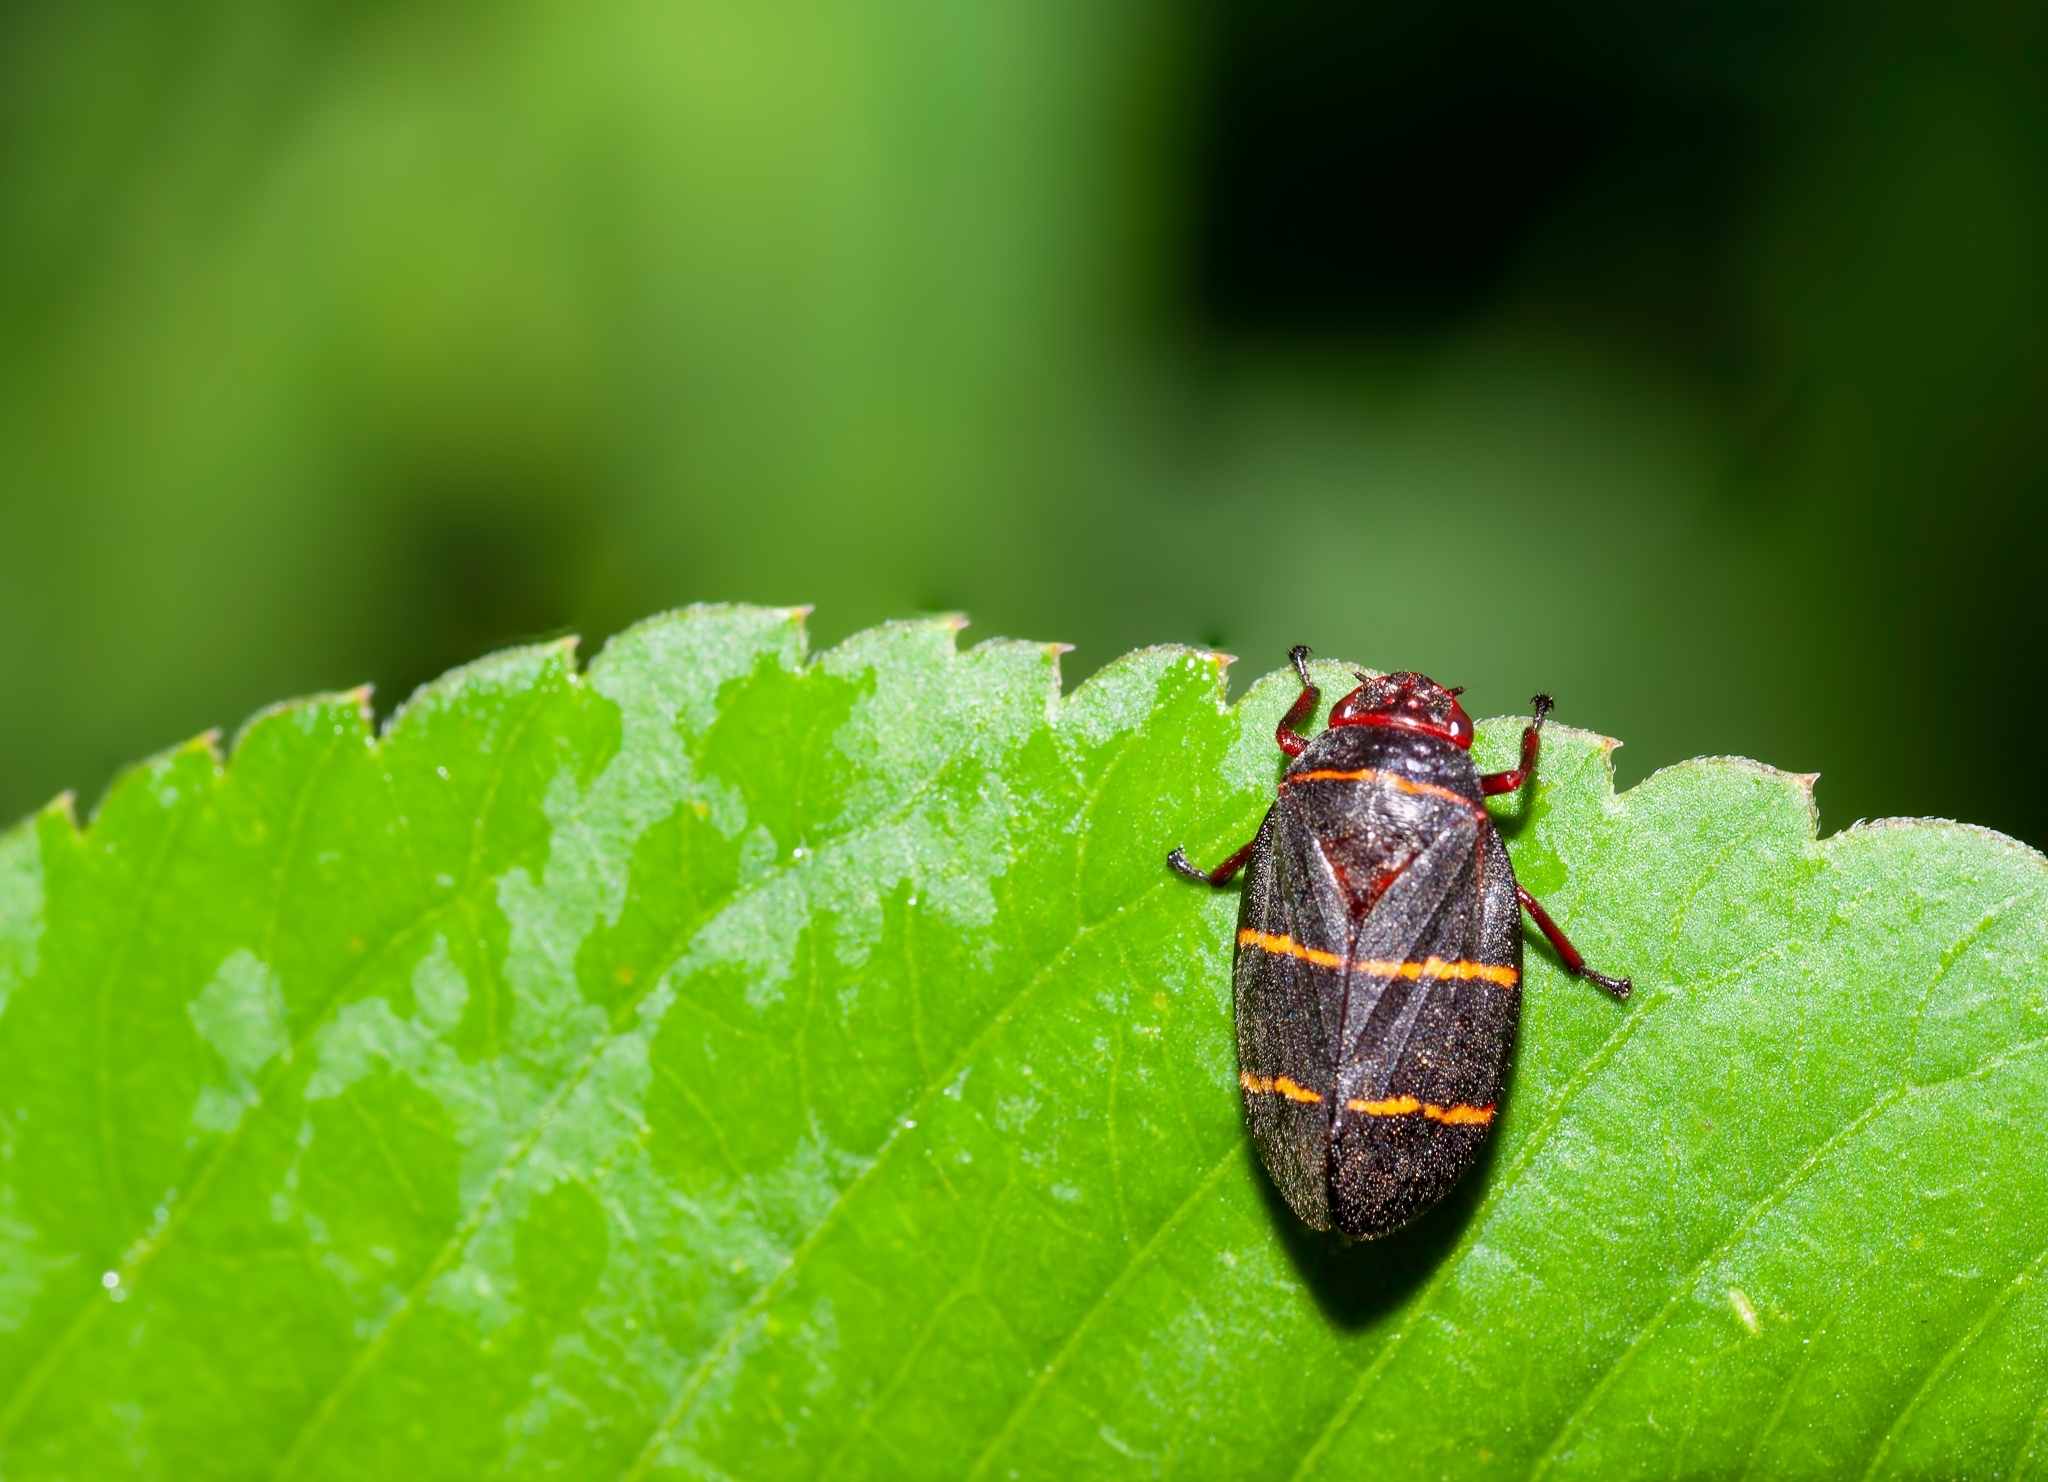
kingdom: Animalia
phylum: Arthropoda
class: Insecta
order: Hemiptera
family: Cercopidae
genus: Prosapia
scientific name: Prosapia bicincta
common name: Twolined spittlebug
